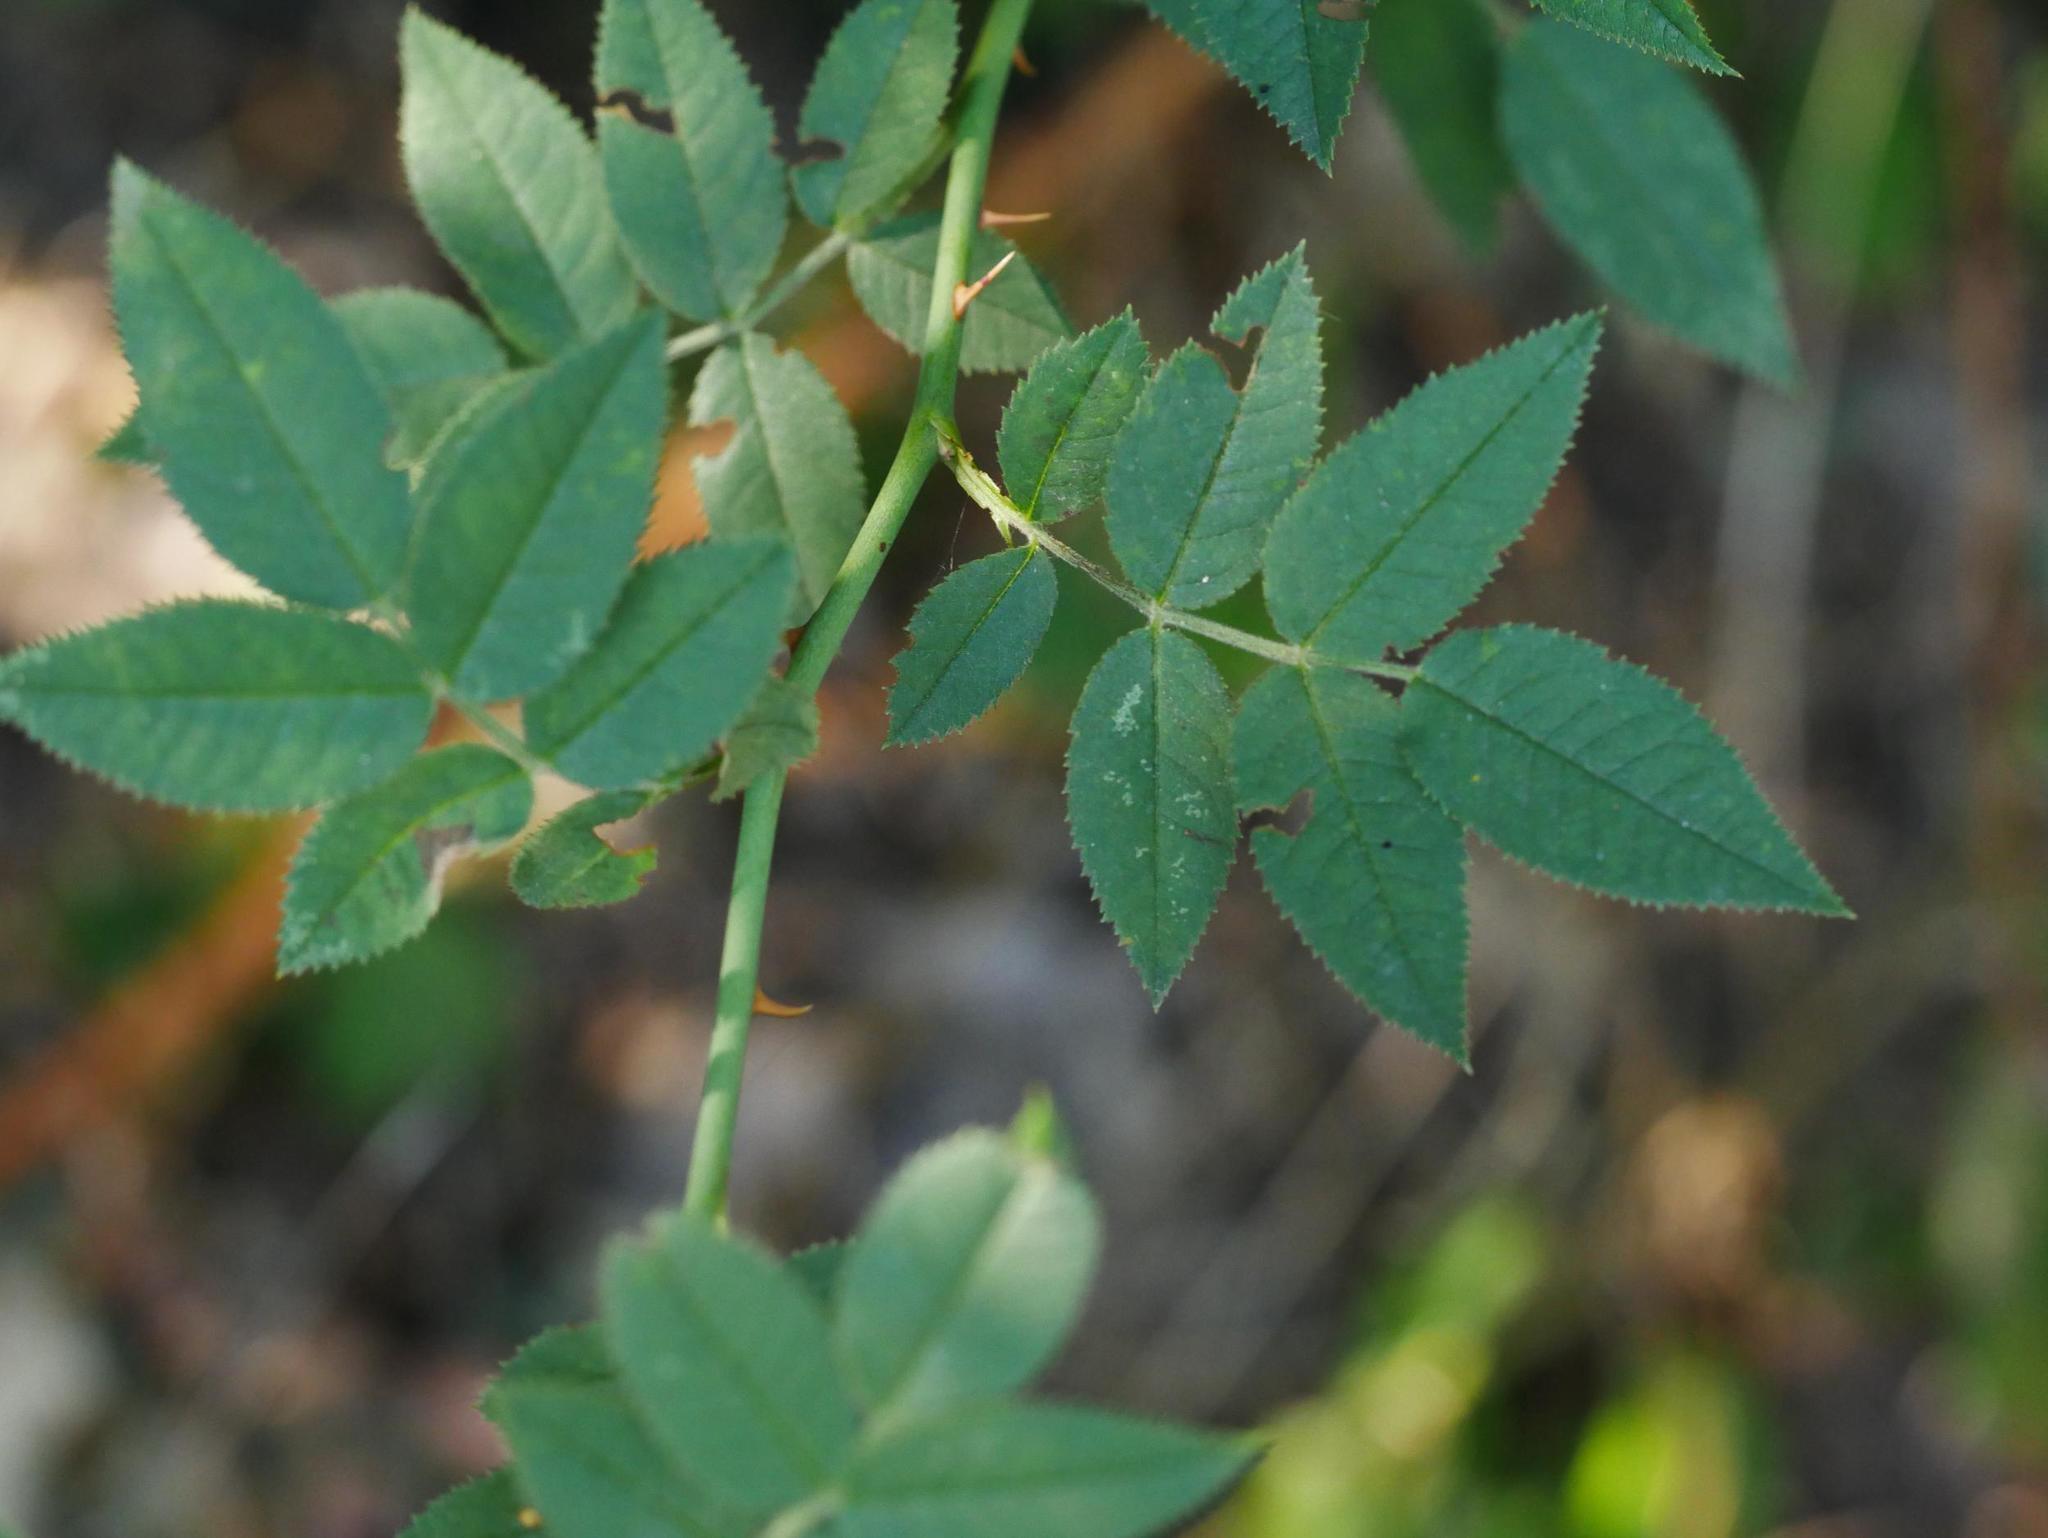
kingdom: Plantae
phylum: Tracheophyta
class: Magnoliopsida
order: Rosales
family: Rosaceae
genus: Rosa
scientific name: Rosa canina
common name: Dog rose
